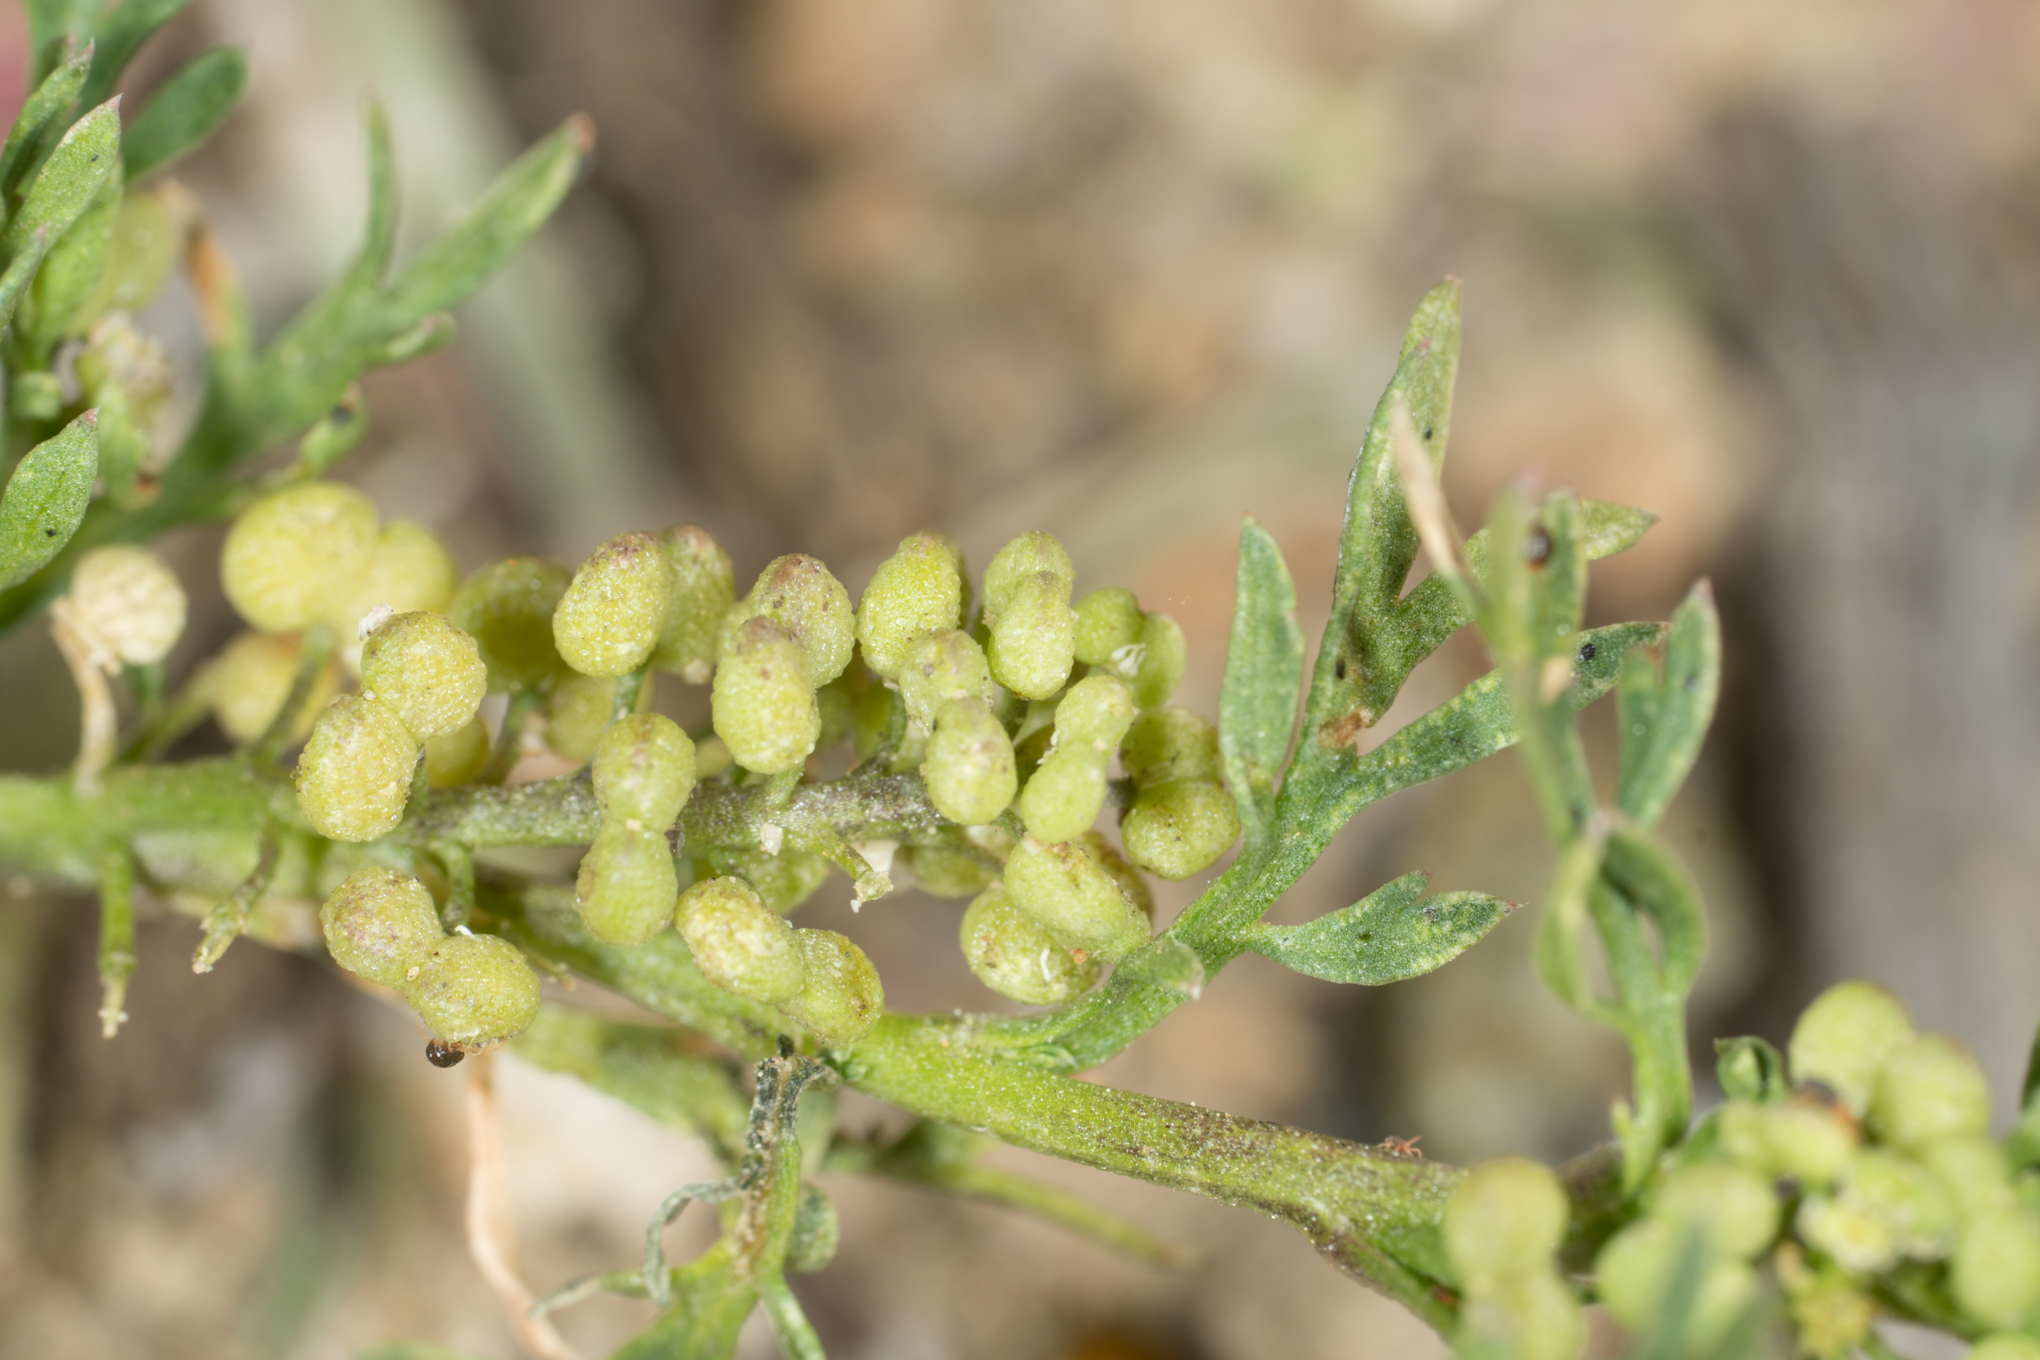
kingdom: Plantae
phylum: Tracheophyta
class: Magnoliopsida
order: Brassicales
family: Brassicaceae
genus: Lepidium
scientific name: Lepidium didymum
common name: Lesser swinecress
